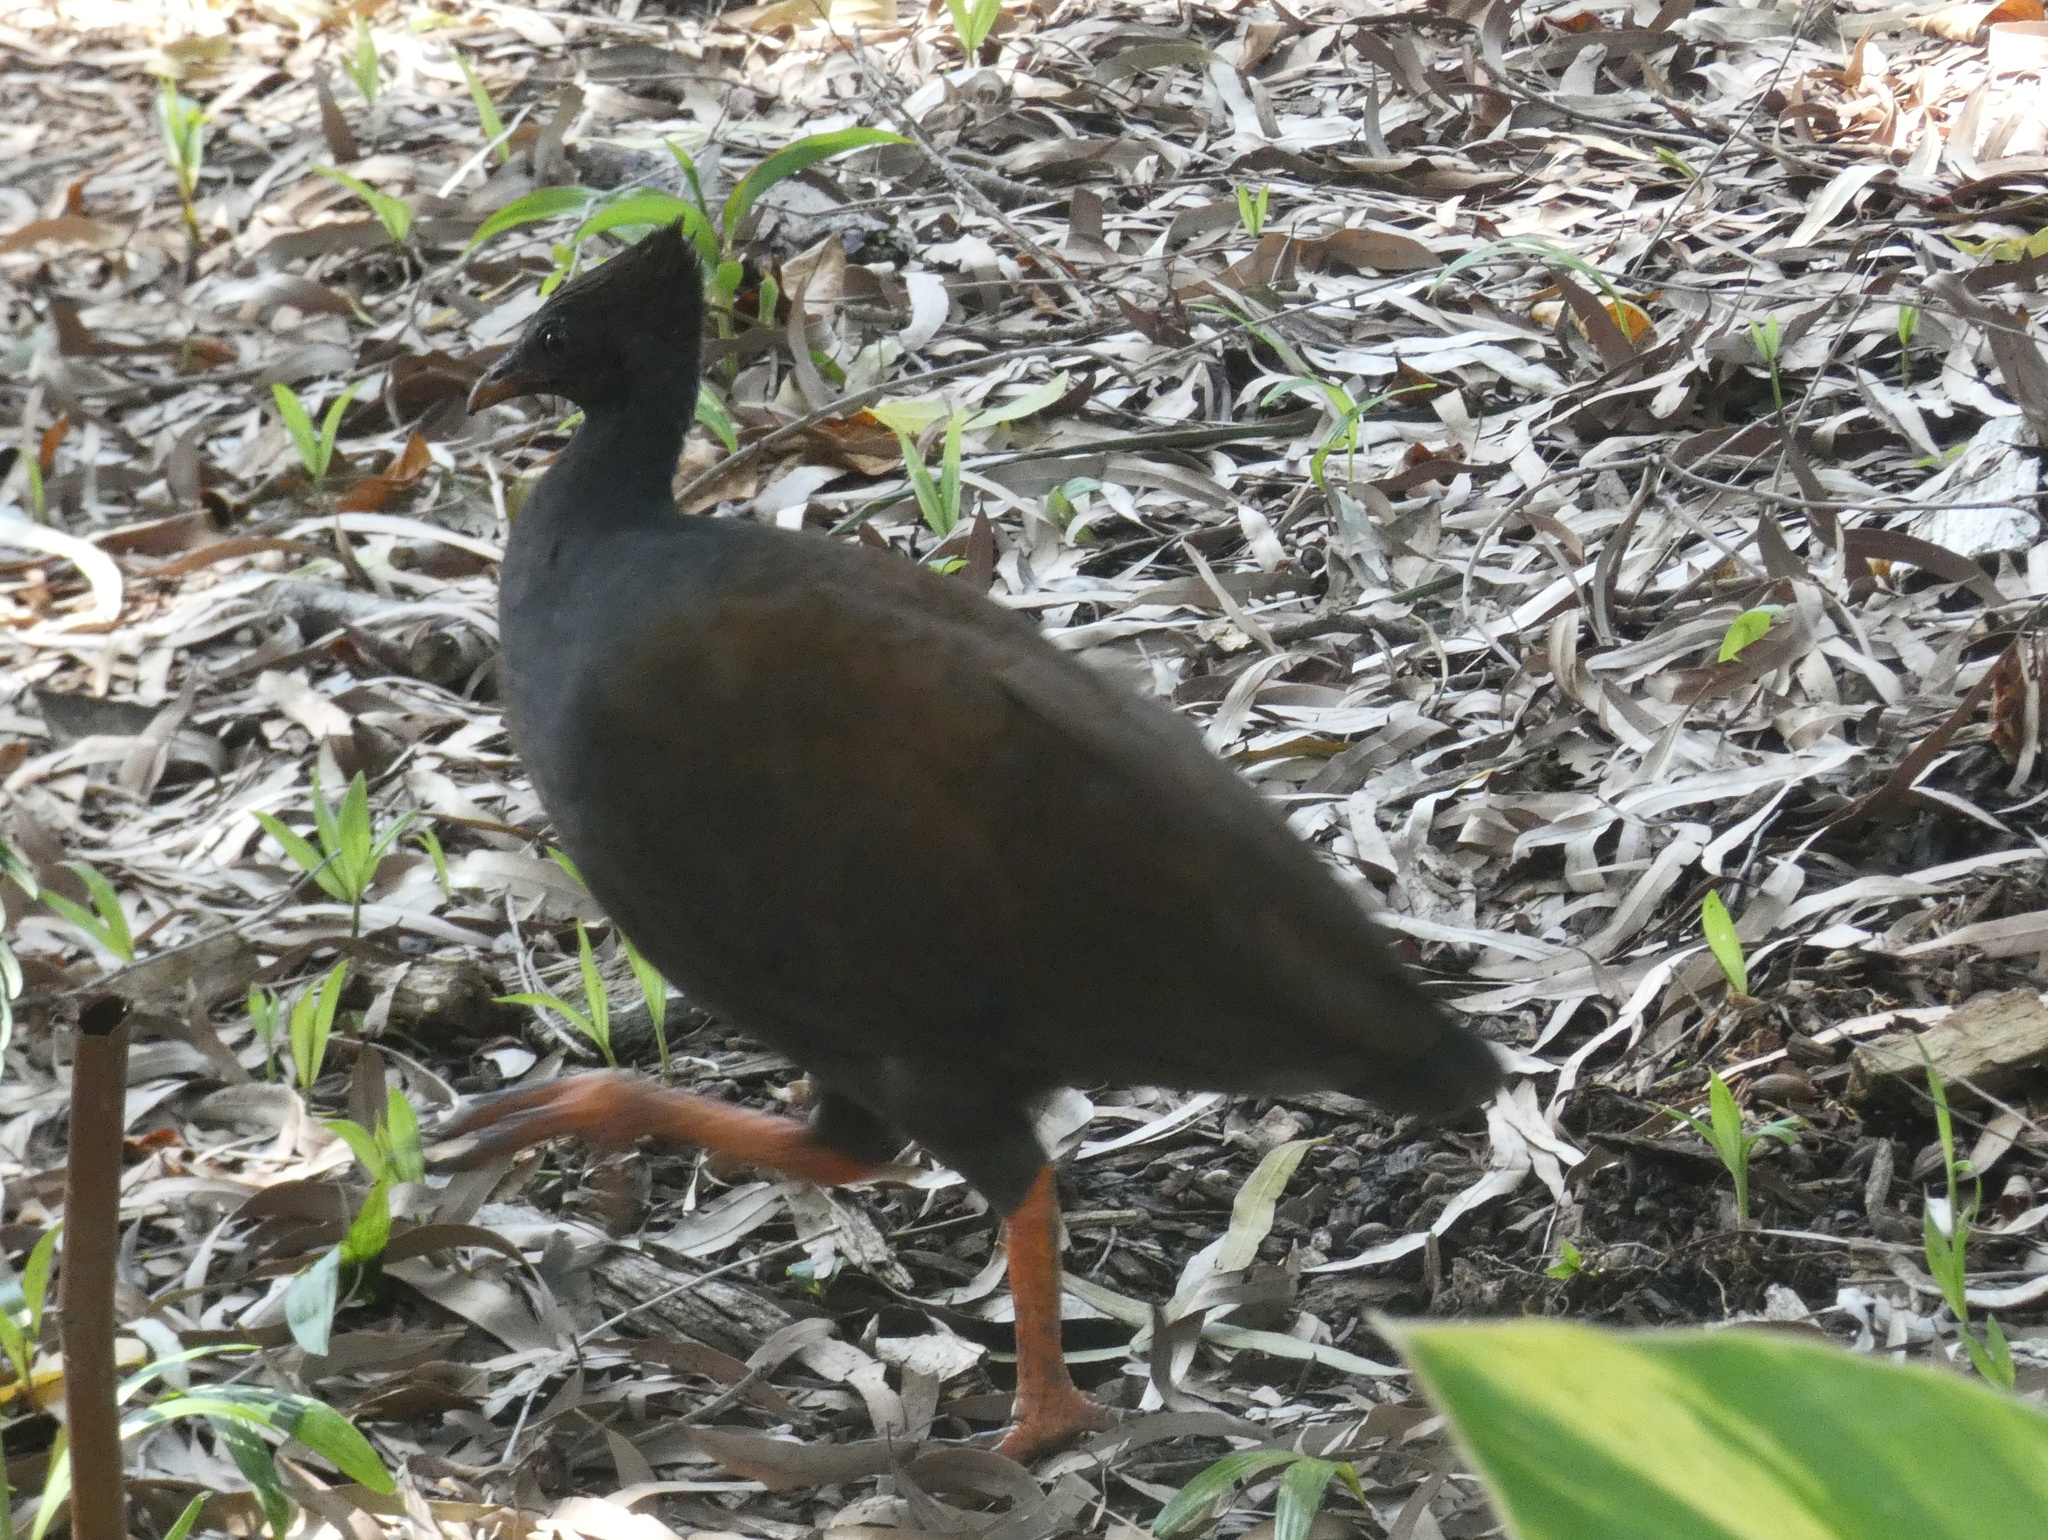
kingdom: Animalia
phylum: Chordata
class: Aves
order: Galliformes
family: Megapodiidae
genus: Megapodius
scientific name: Megapodius reinwardt
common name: Orange-footed scrubfowl
